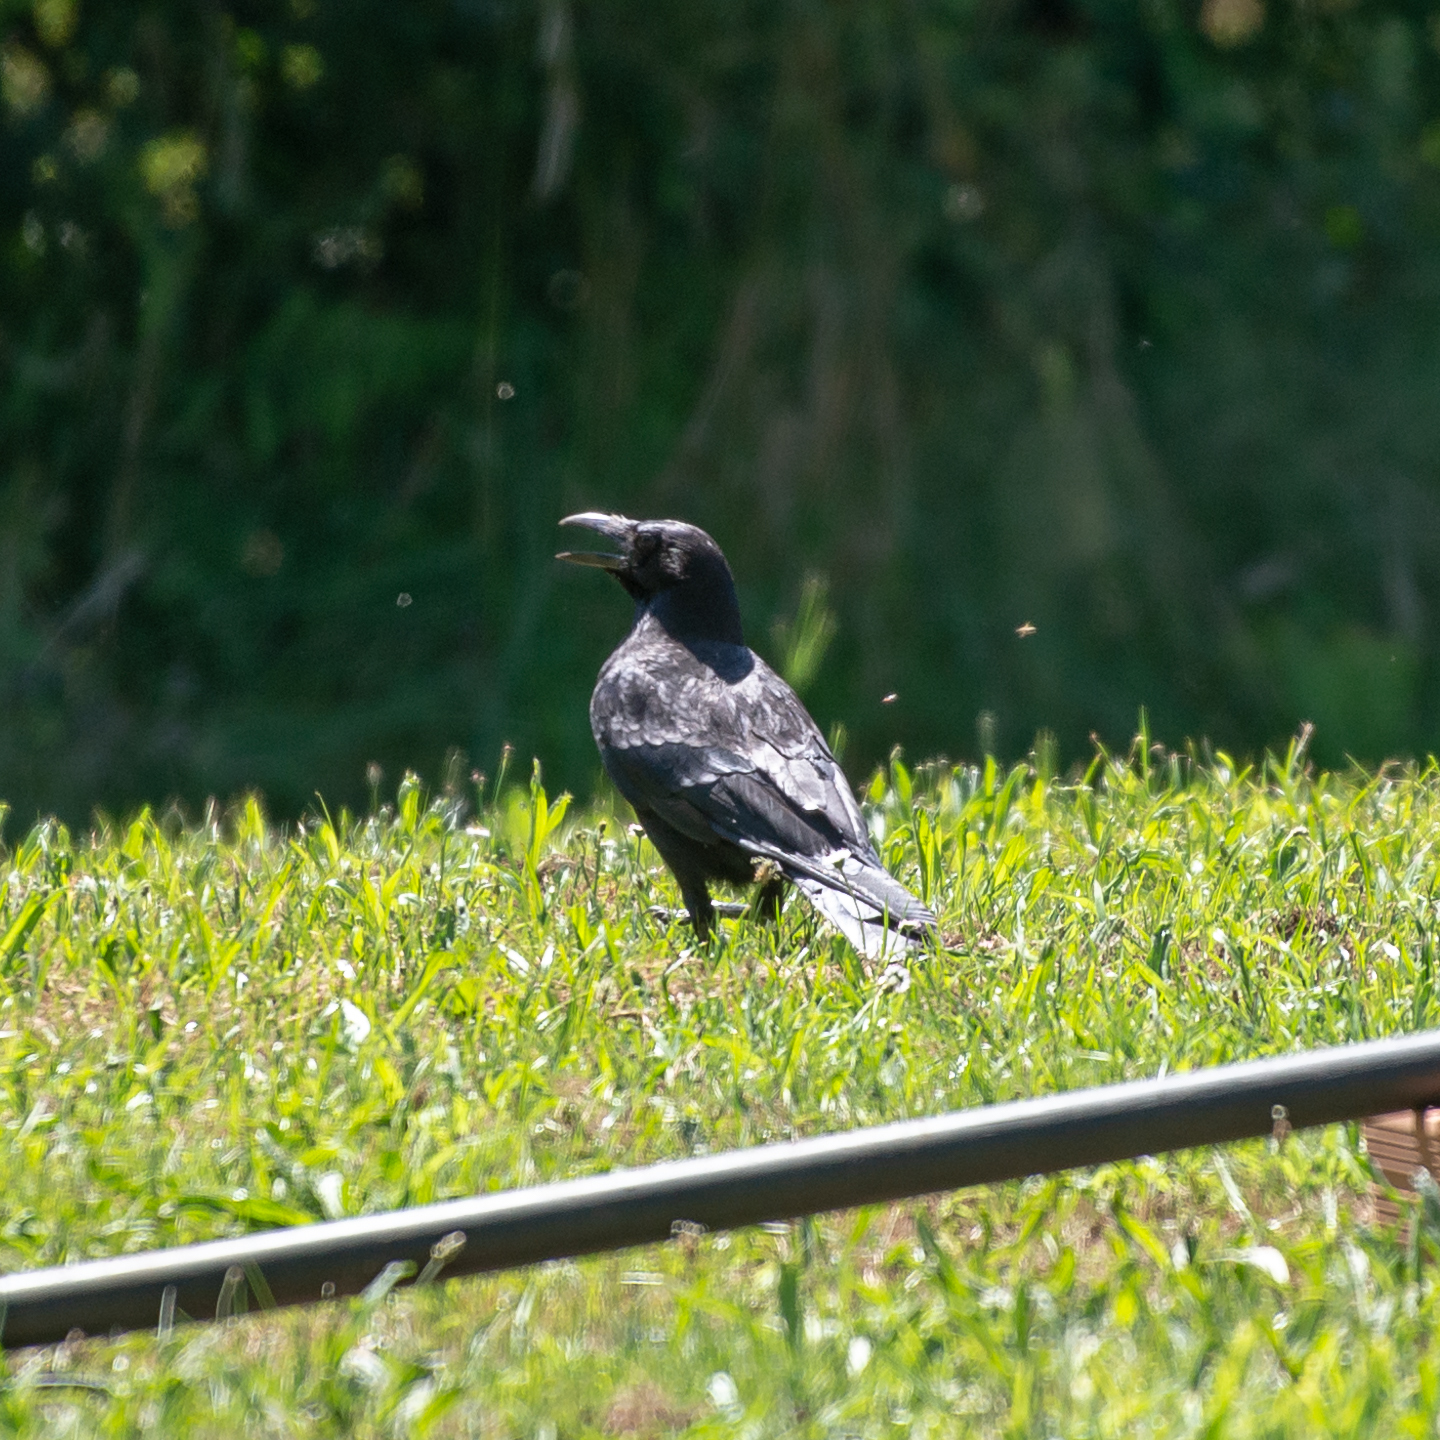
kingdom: Animalia
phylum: Chordata
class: Aves
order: Passeriformes
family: Corvidae
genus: Corvus
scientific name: Corvus corax
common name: Common raven
